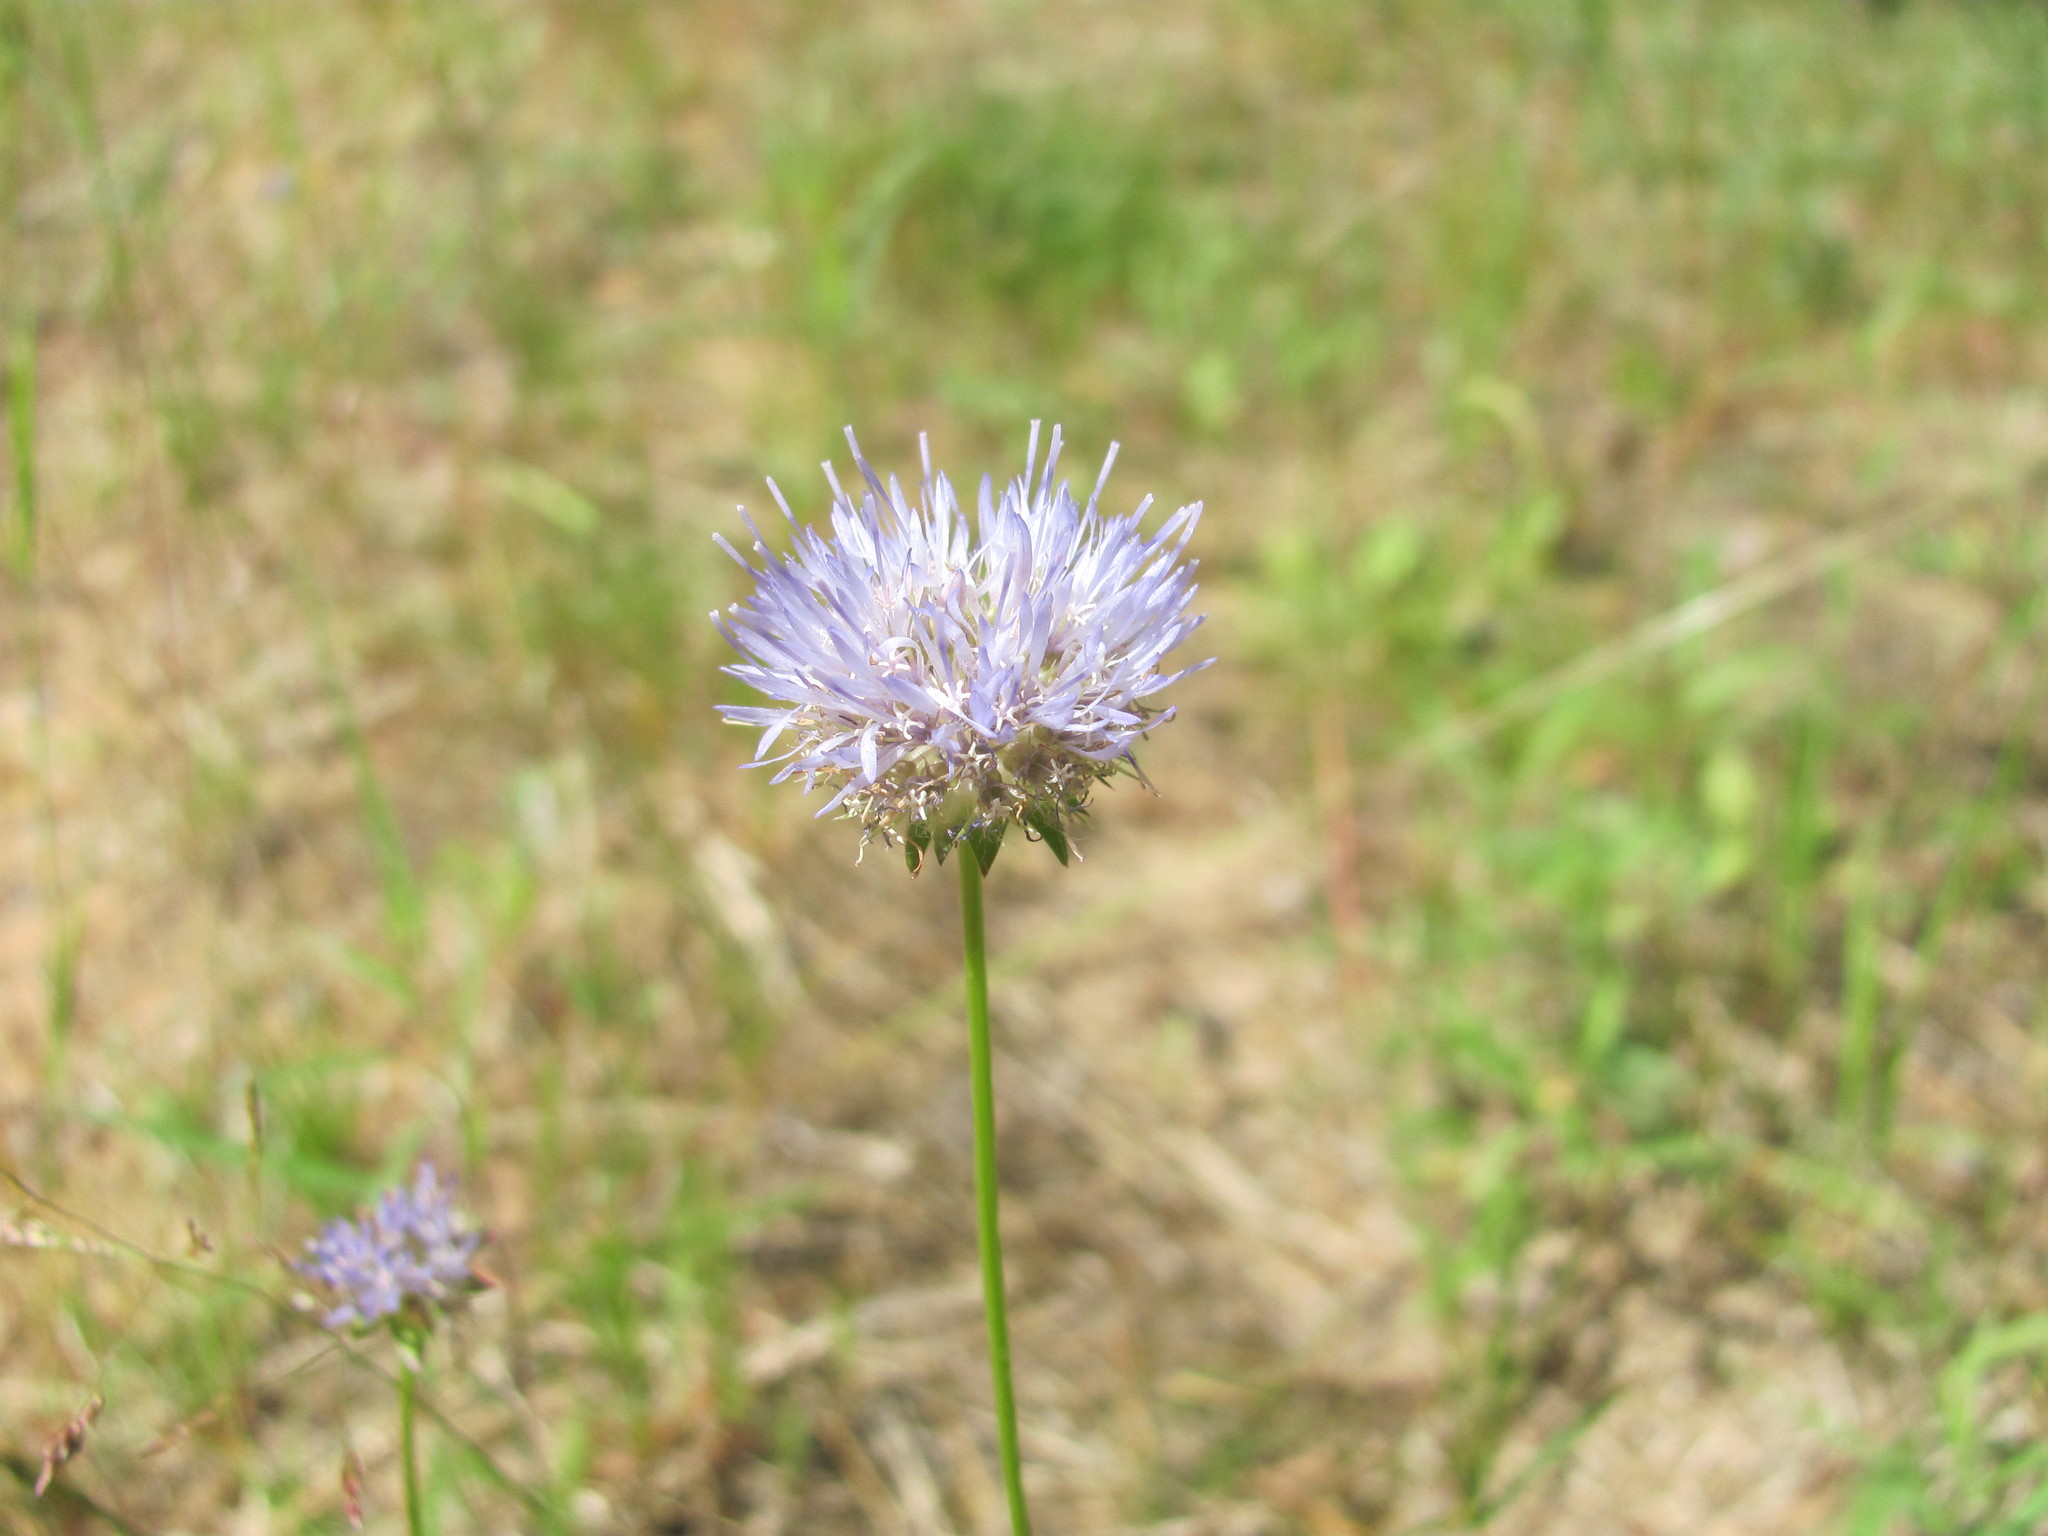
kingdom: Plantae
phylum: Tracheophyta
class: Magnoliopsida
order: Asterales
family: Campanulaceae
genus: Jasione
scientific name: Jasione montana
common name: Sheep's-bit
